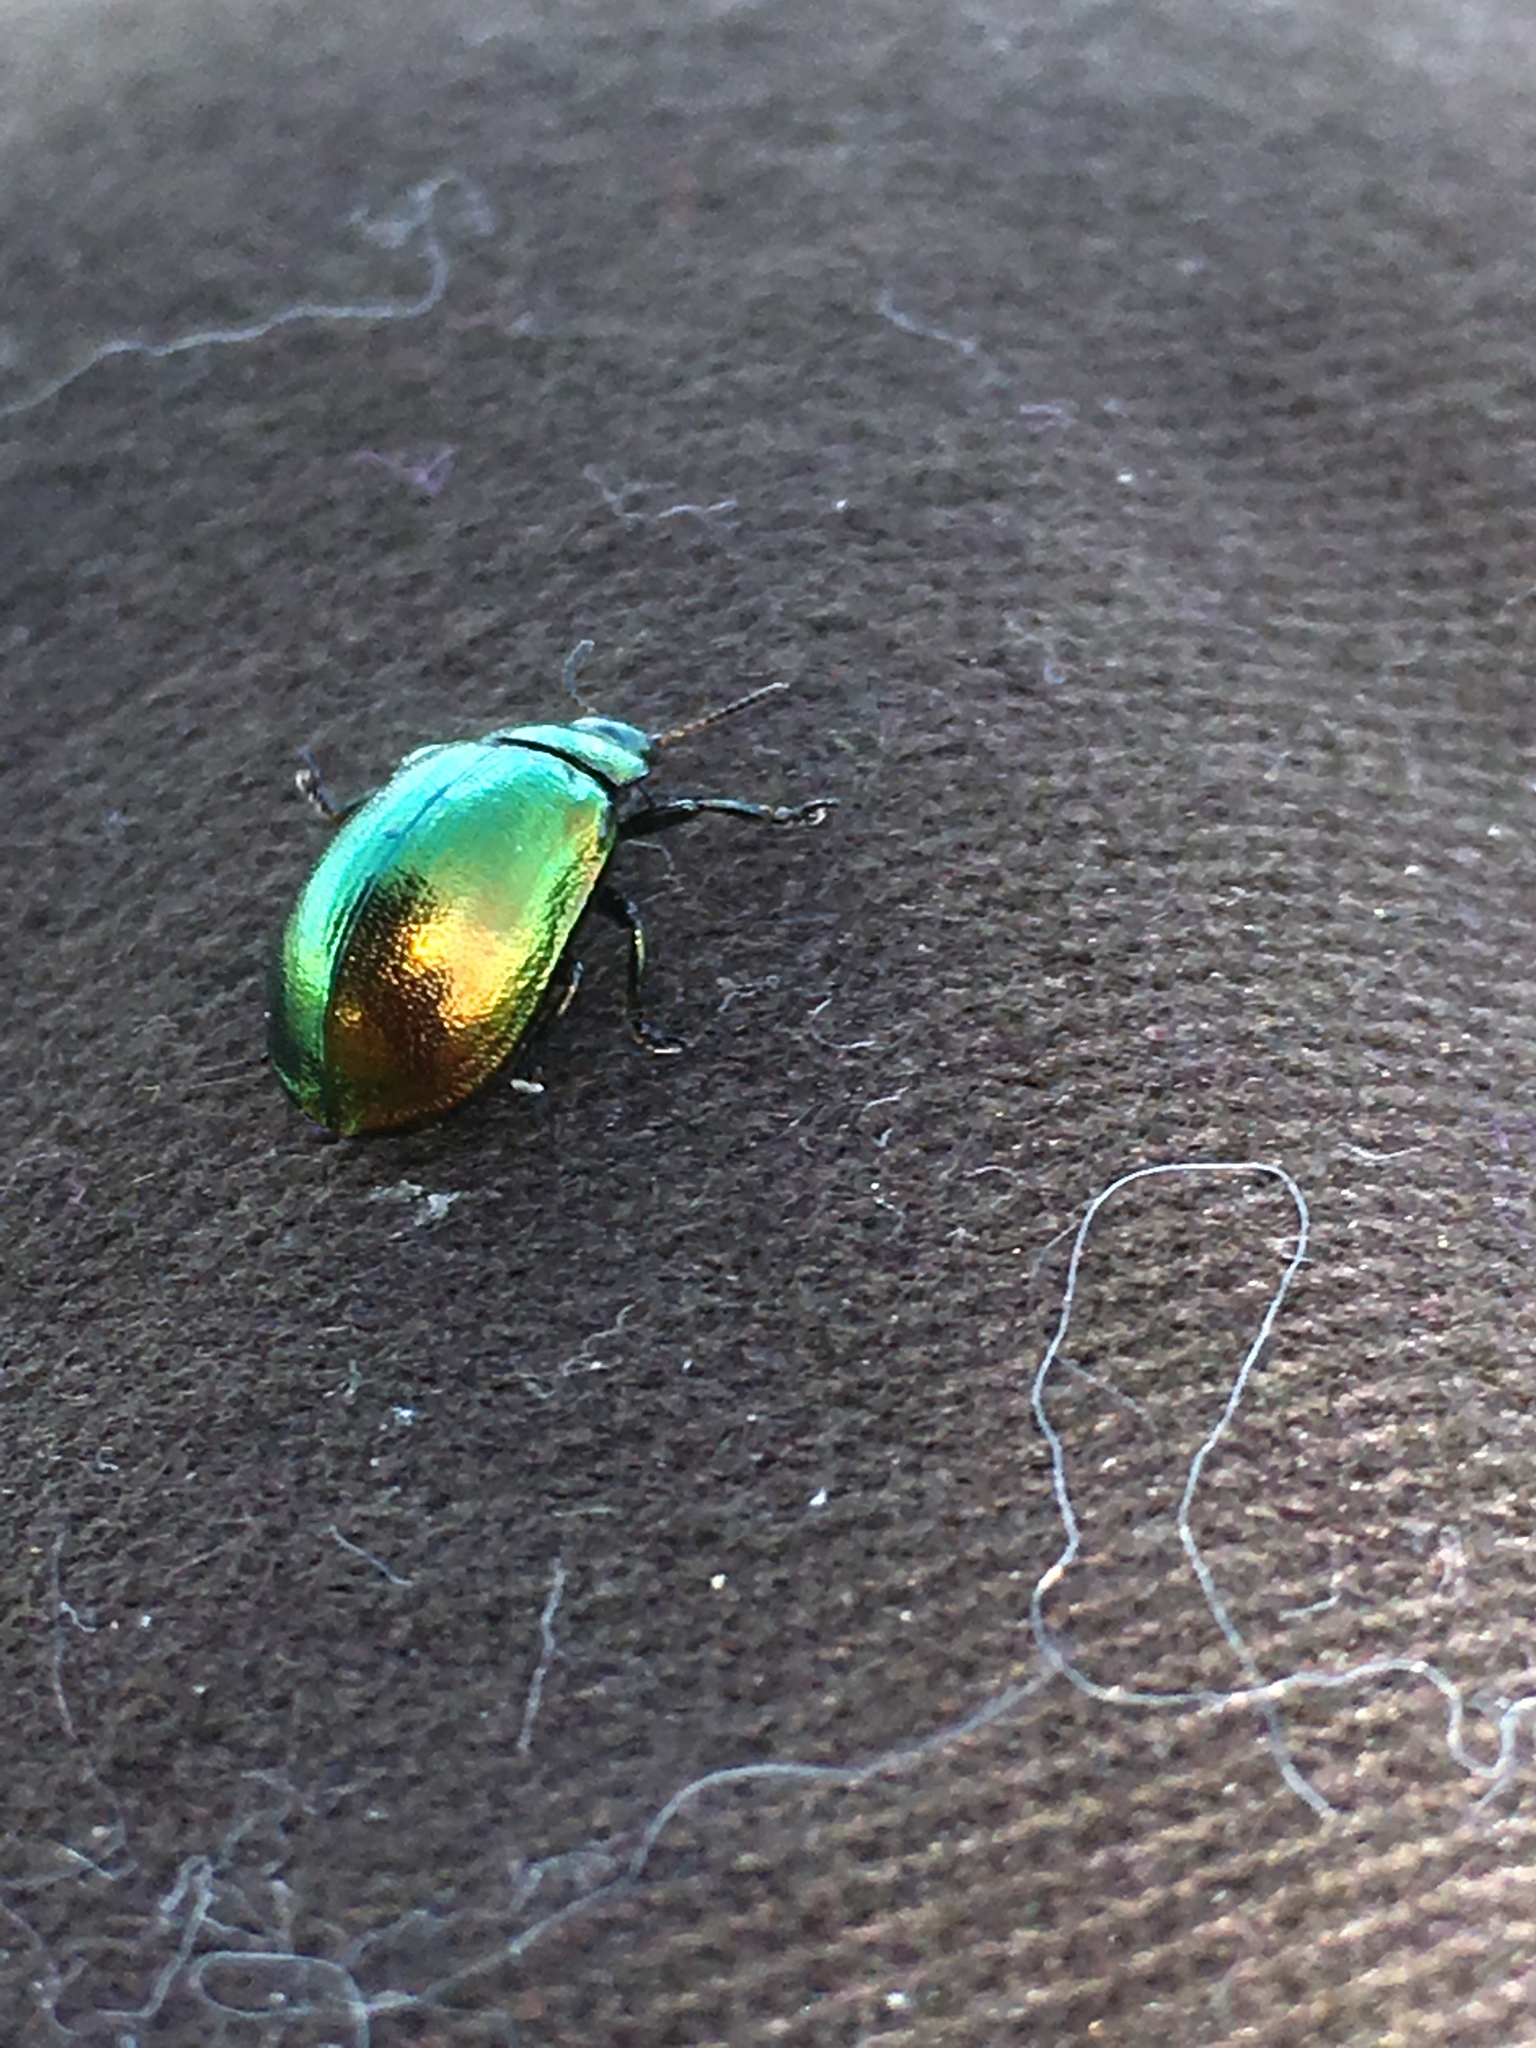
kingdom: Animalia
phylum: Arthropoda
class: Insecta
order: Coleoptera
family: Chrysomelidae
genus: Plagiosterna
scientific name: Plagiosterna aenea
